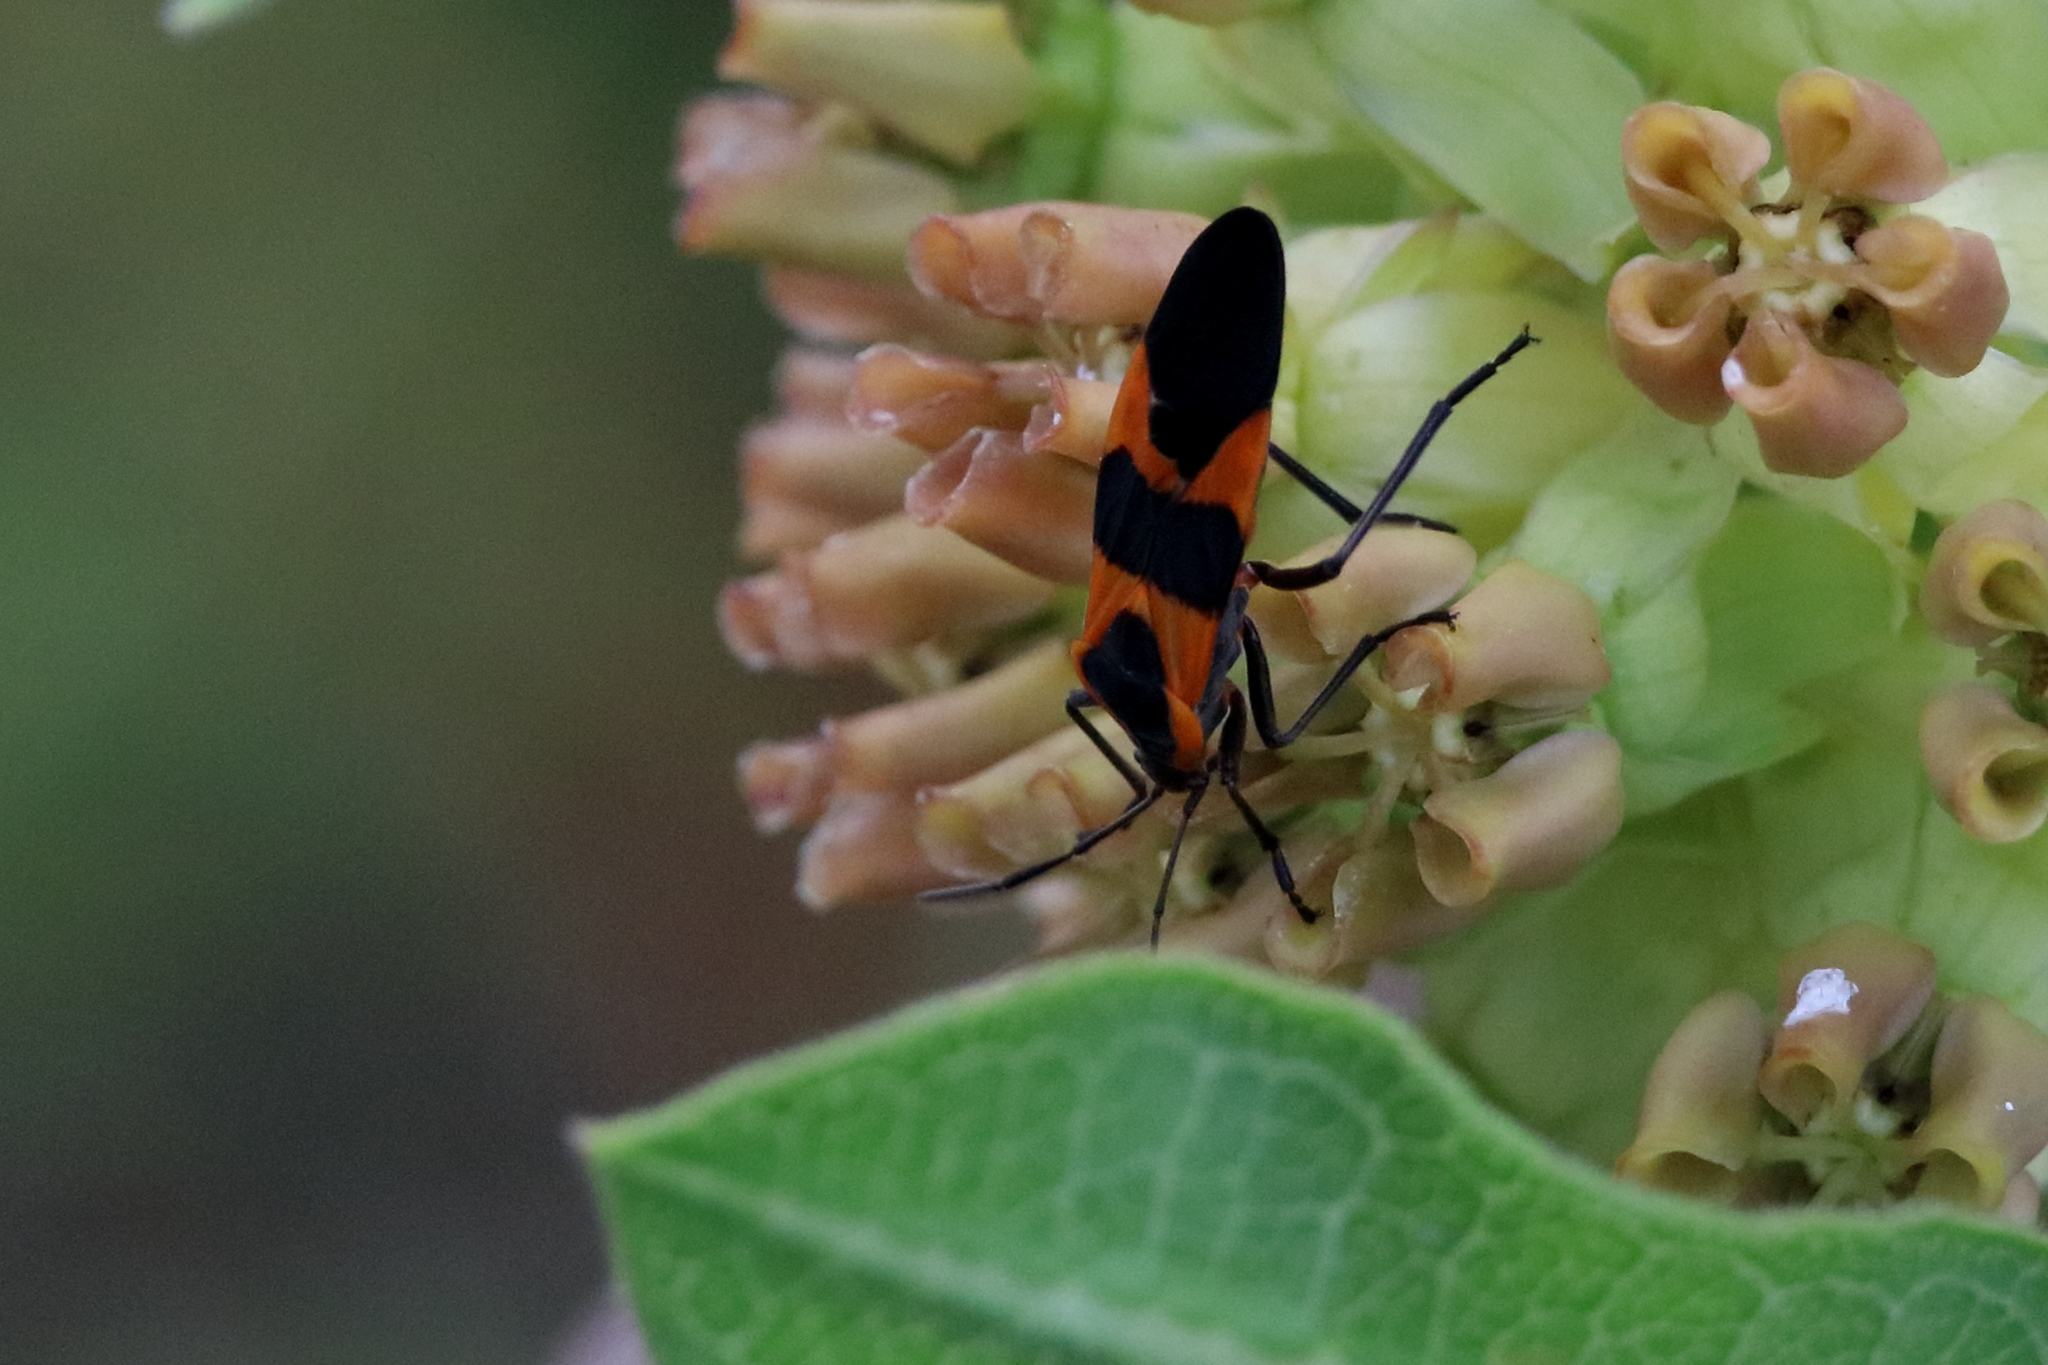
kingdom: Animalia
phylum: Arthropoda
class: Insecta
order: Hemiptera
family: Lygaeidae
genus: Oncopeltus
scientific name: Oncopeltus fasciatus
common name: Large milkweed bug
